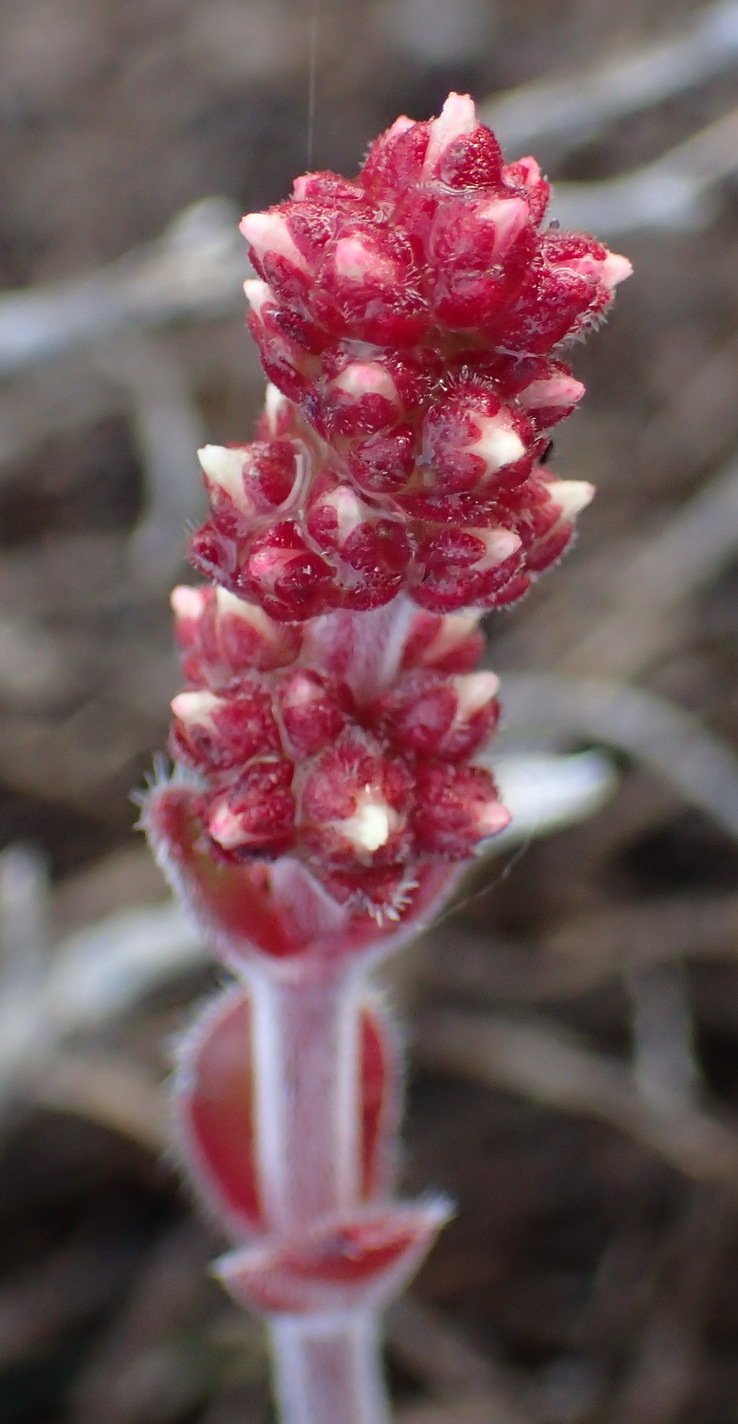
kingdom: Plantae
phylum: Tracheophyta
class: Magnoliopsida
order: Saxifragales
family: Crassulaceae
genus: Crassula
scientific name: Crassula tomentosa
